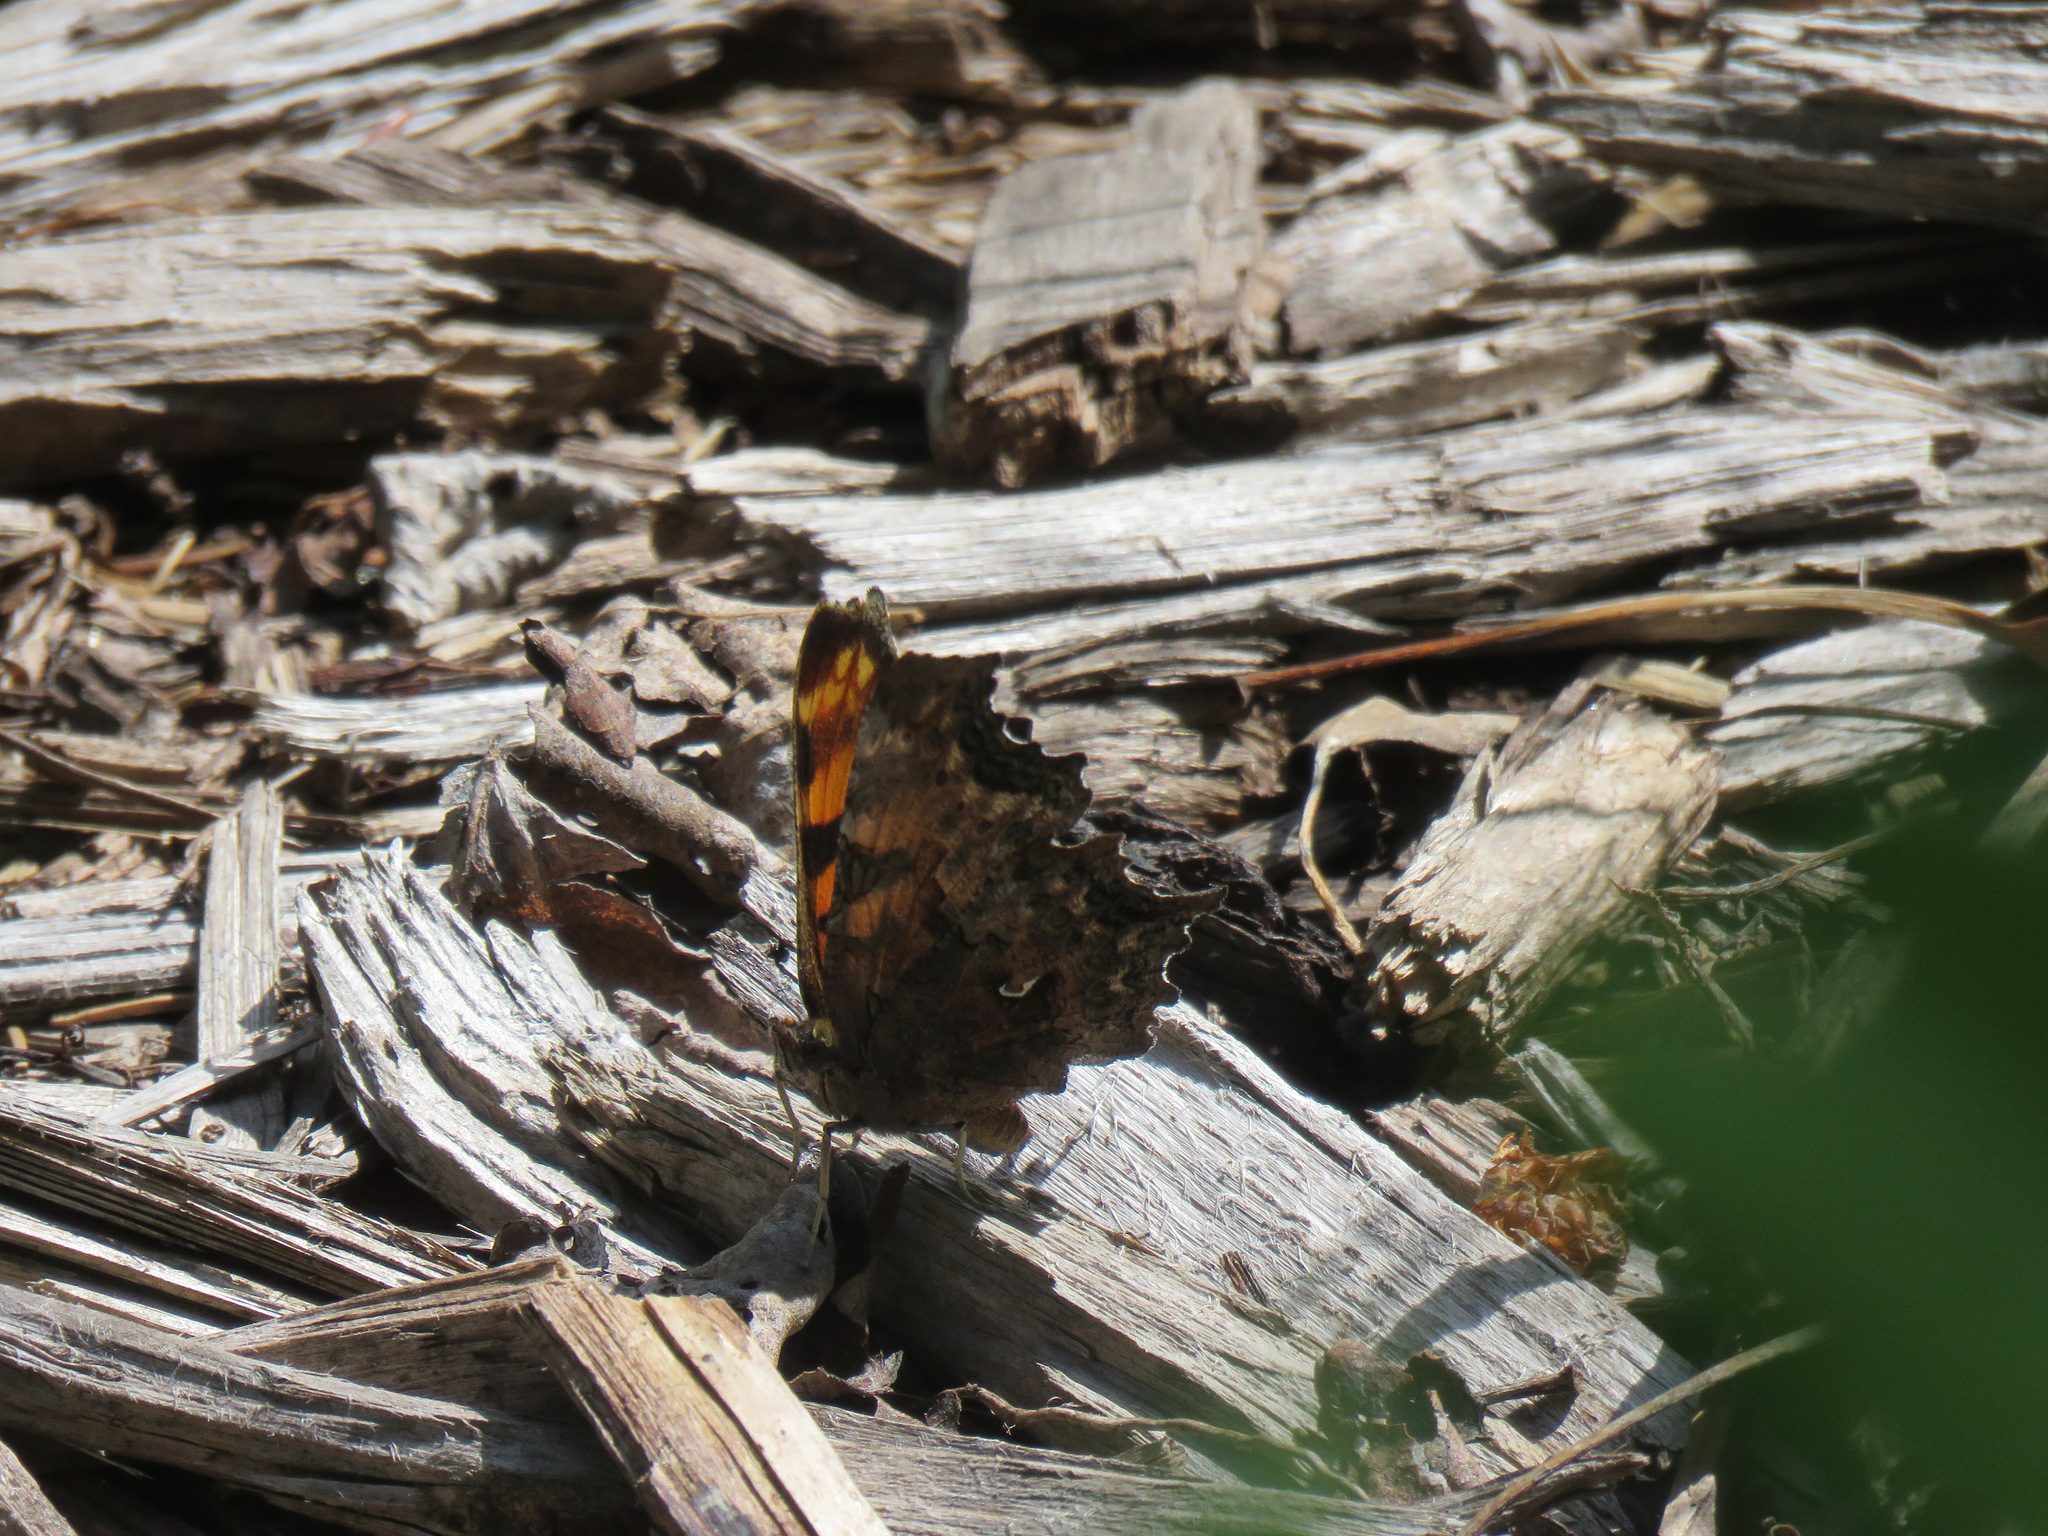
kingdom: Animalia
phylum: Arthropoda
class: Insecta
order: Lepidoptera
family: Nymphalidae
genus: Polygonia
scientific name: Polygonia faunus
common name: Green comma
